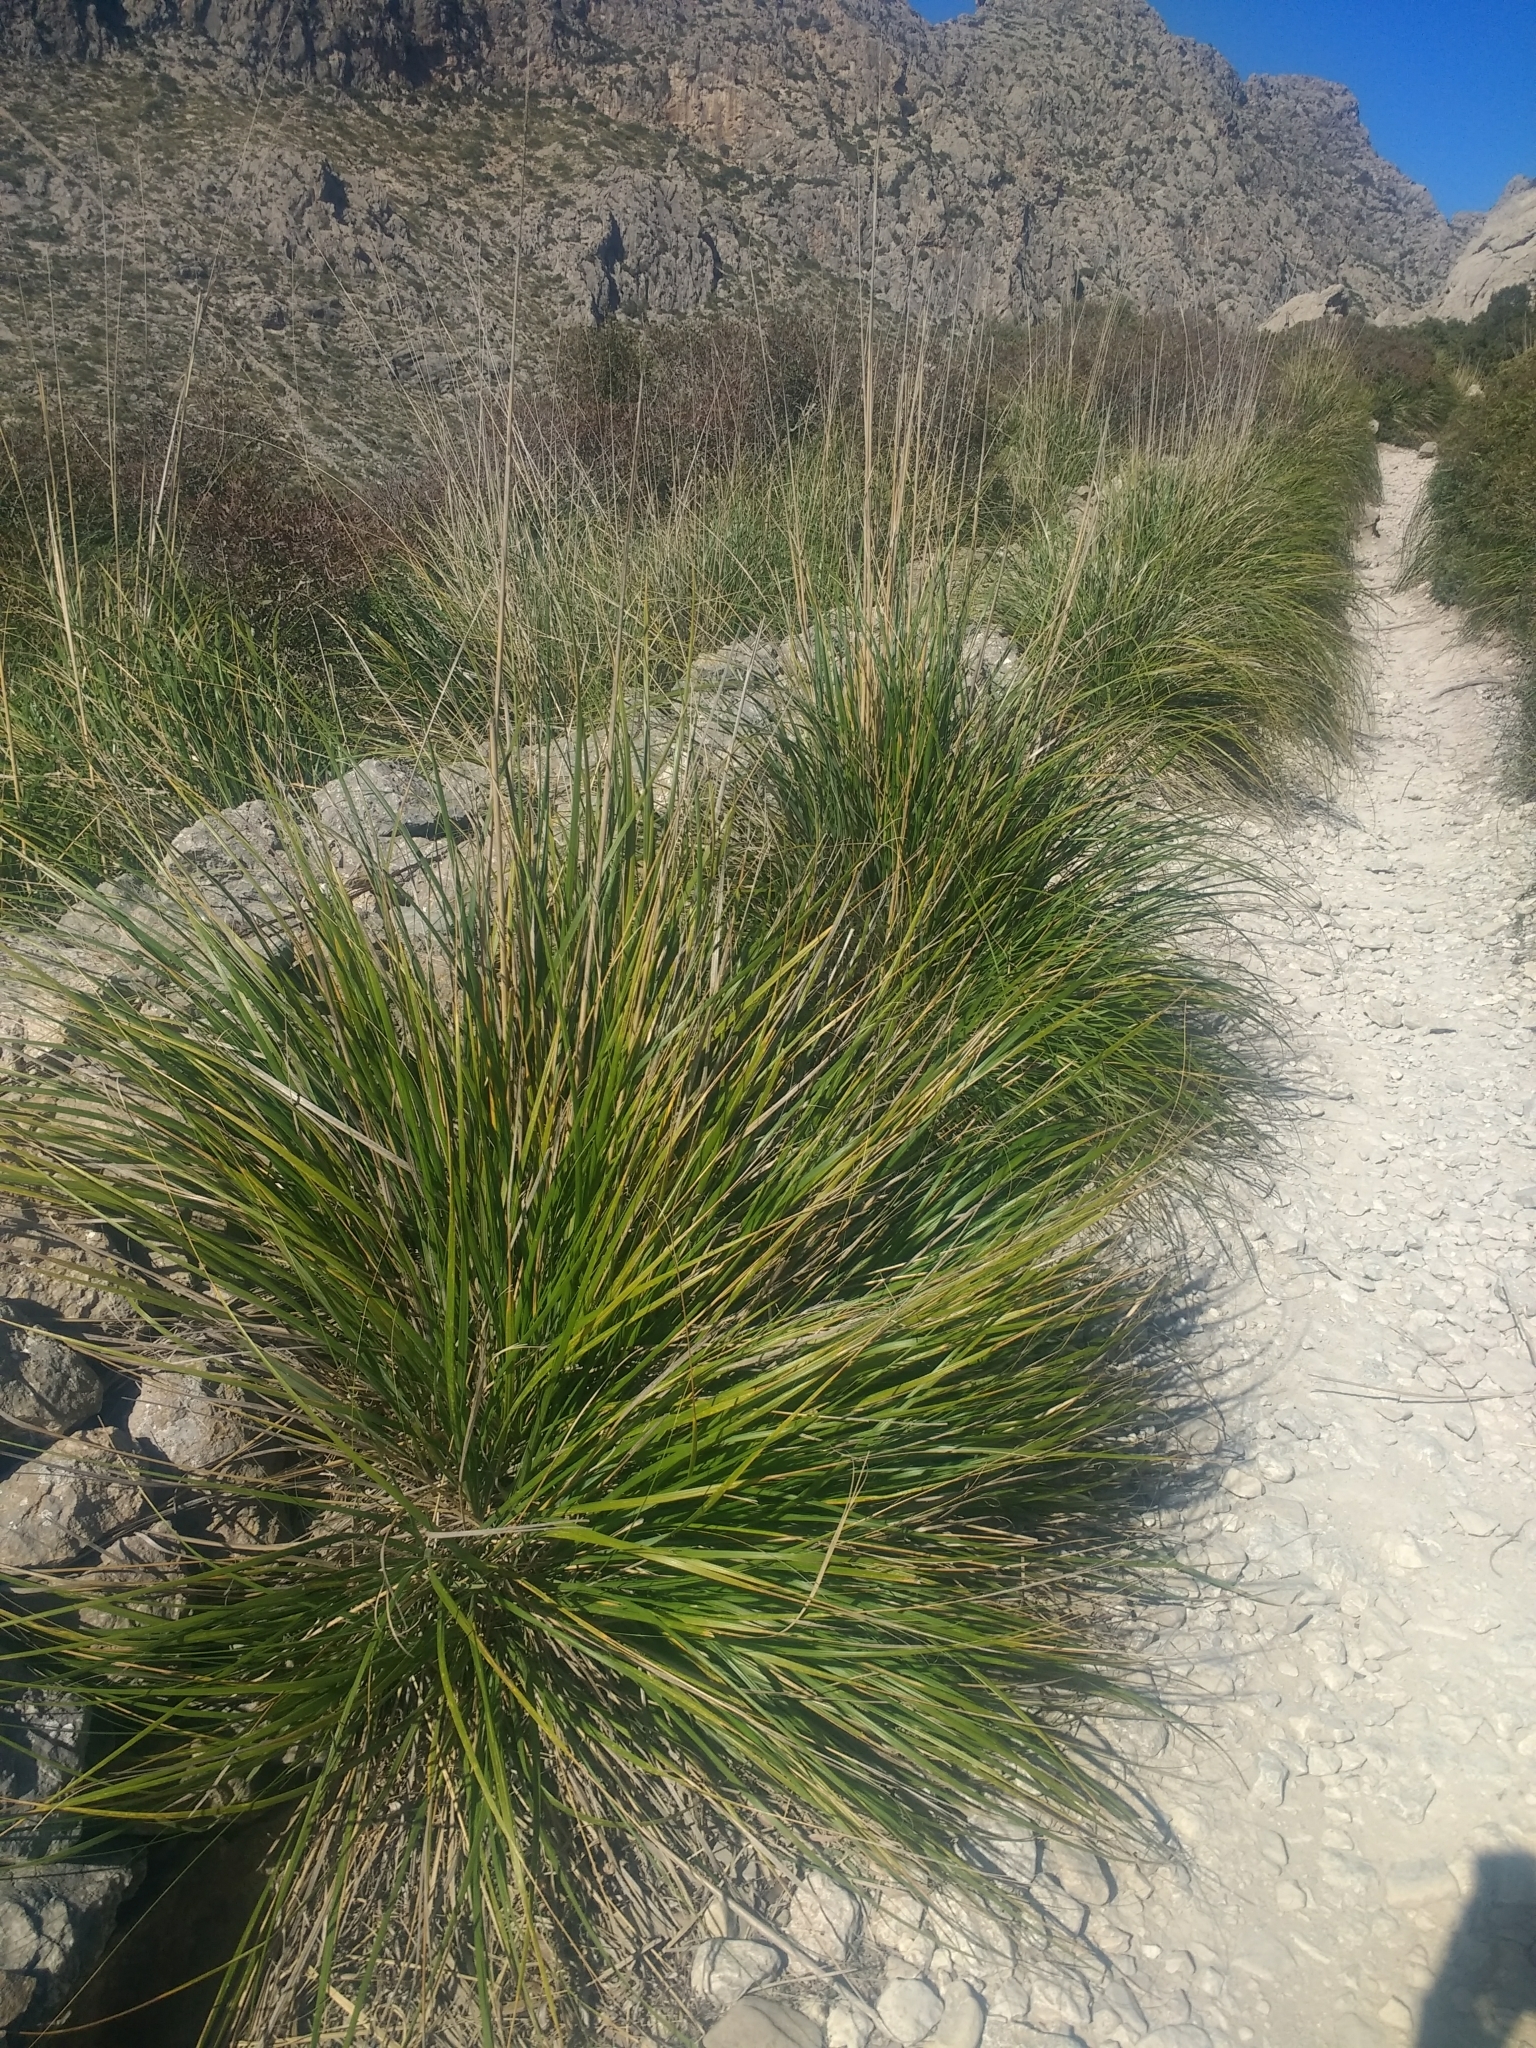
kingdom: Plantae
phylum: Tracheophyta
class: Liliopsida
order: Poales
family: Poaceae
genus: Ampelodesmos
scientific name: Ampelodesmos mauritanicus
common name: Mauritanian grass
